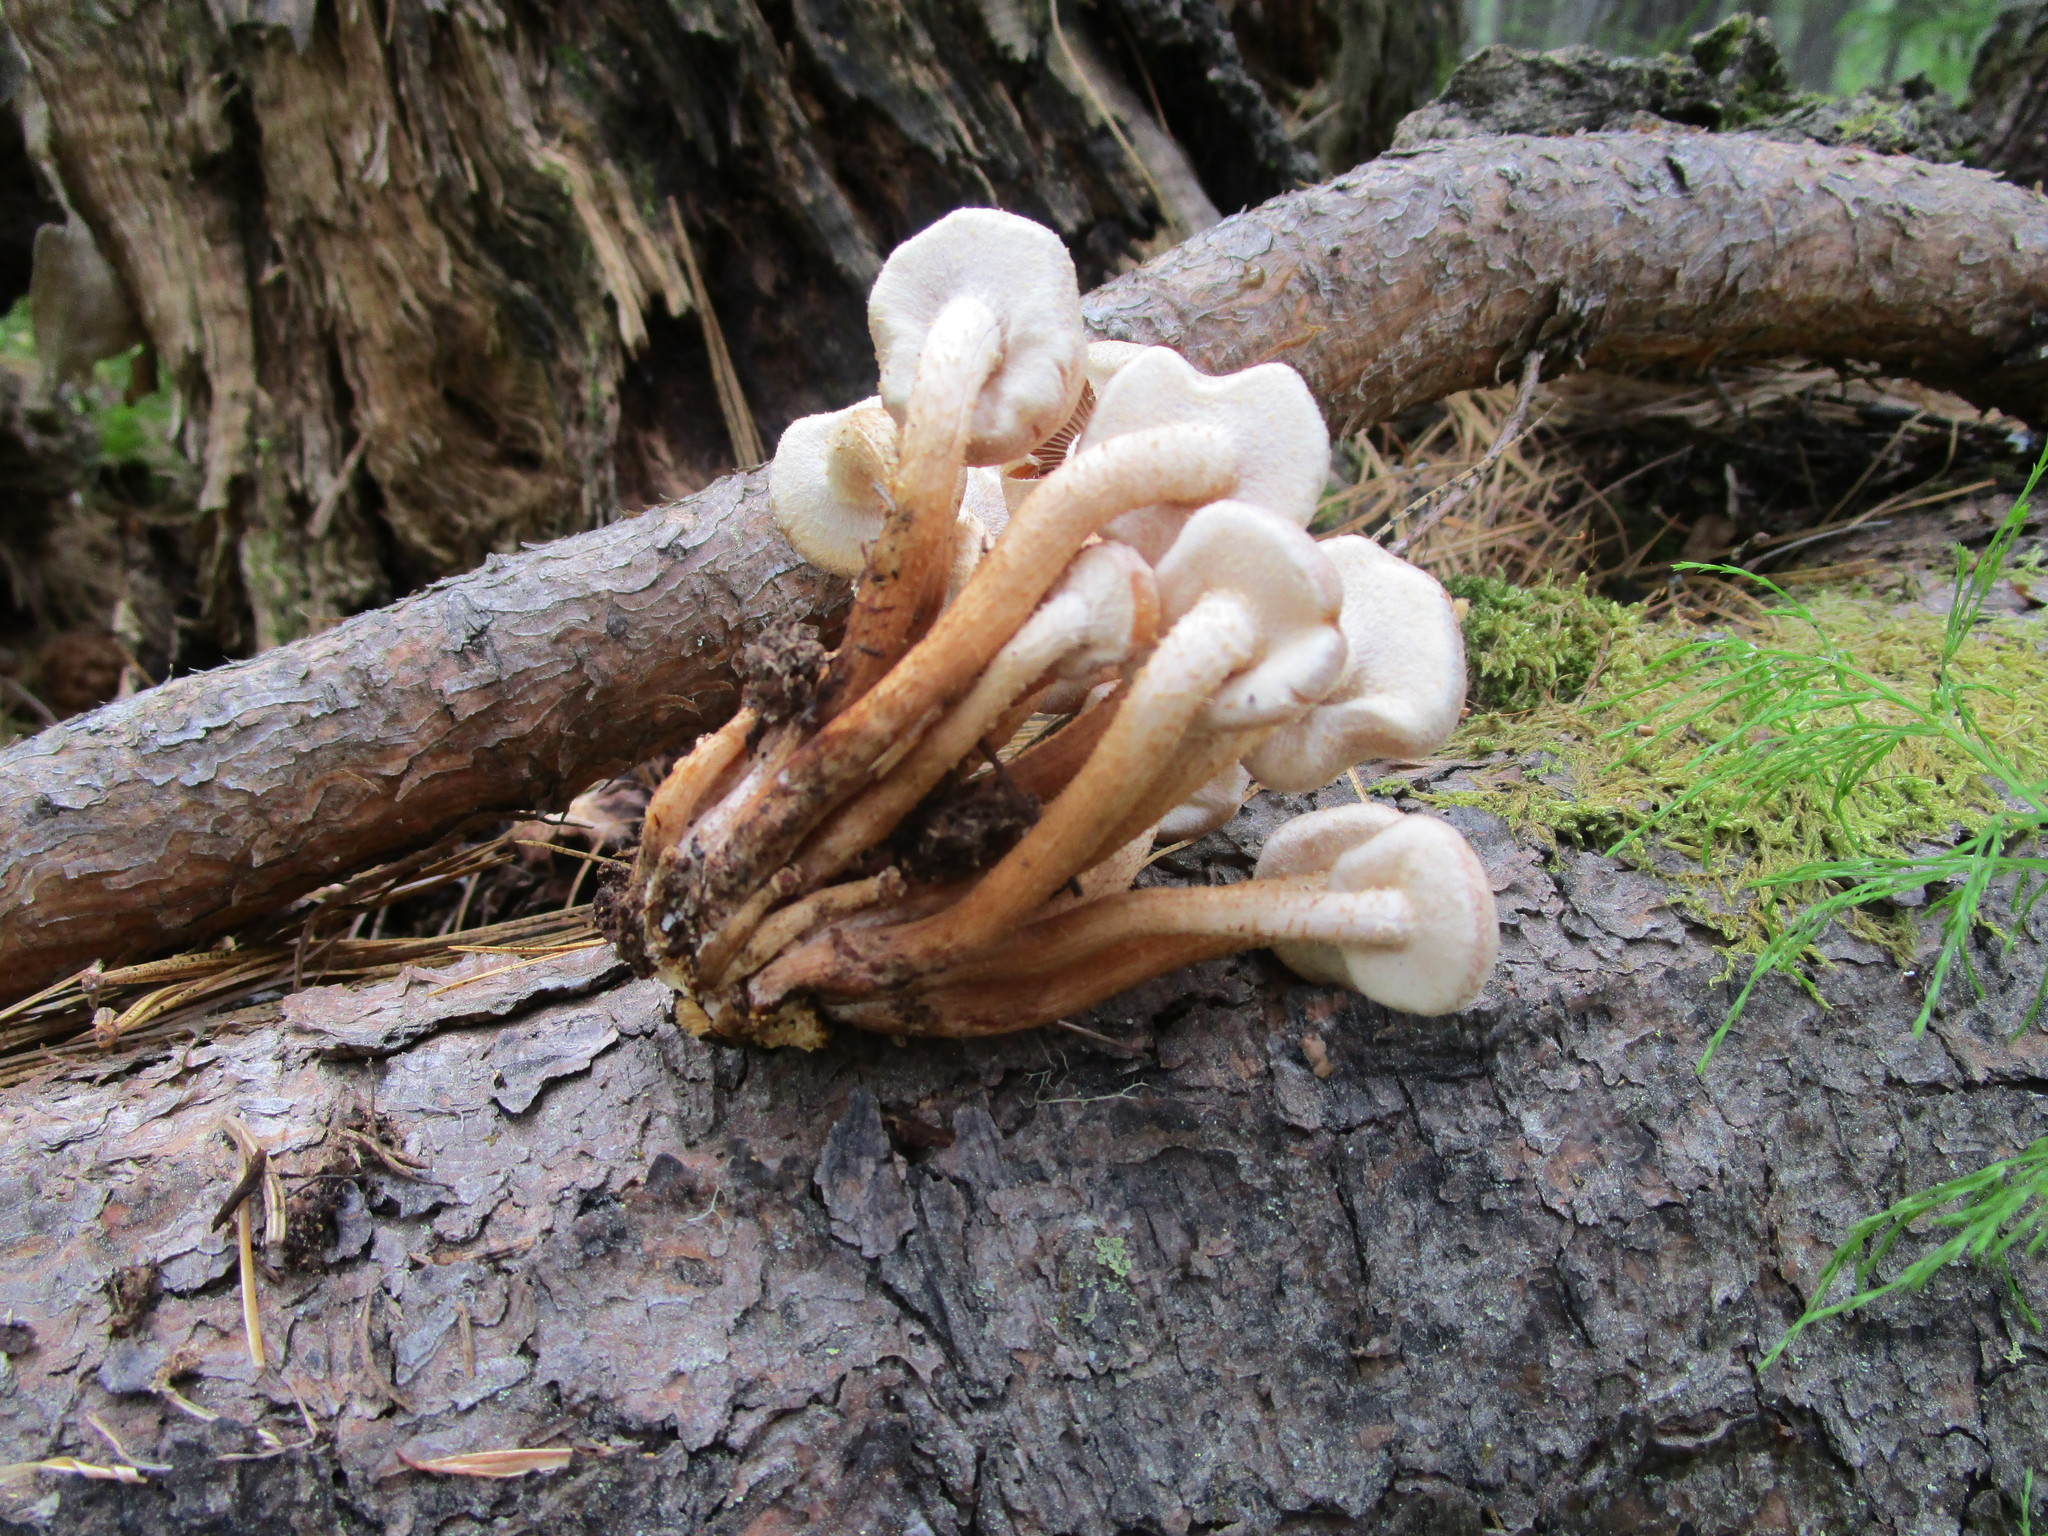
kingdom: Fungi
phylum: Basidiomycota
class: Agaricomycetes
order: Agaricales
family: Strophariaceae
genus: Kuehneromyces
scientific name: Kuehneromyces mutabilis
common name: Sheathed woodtuft
